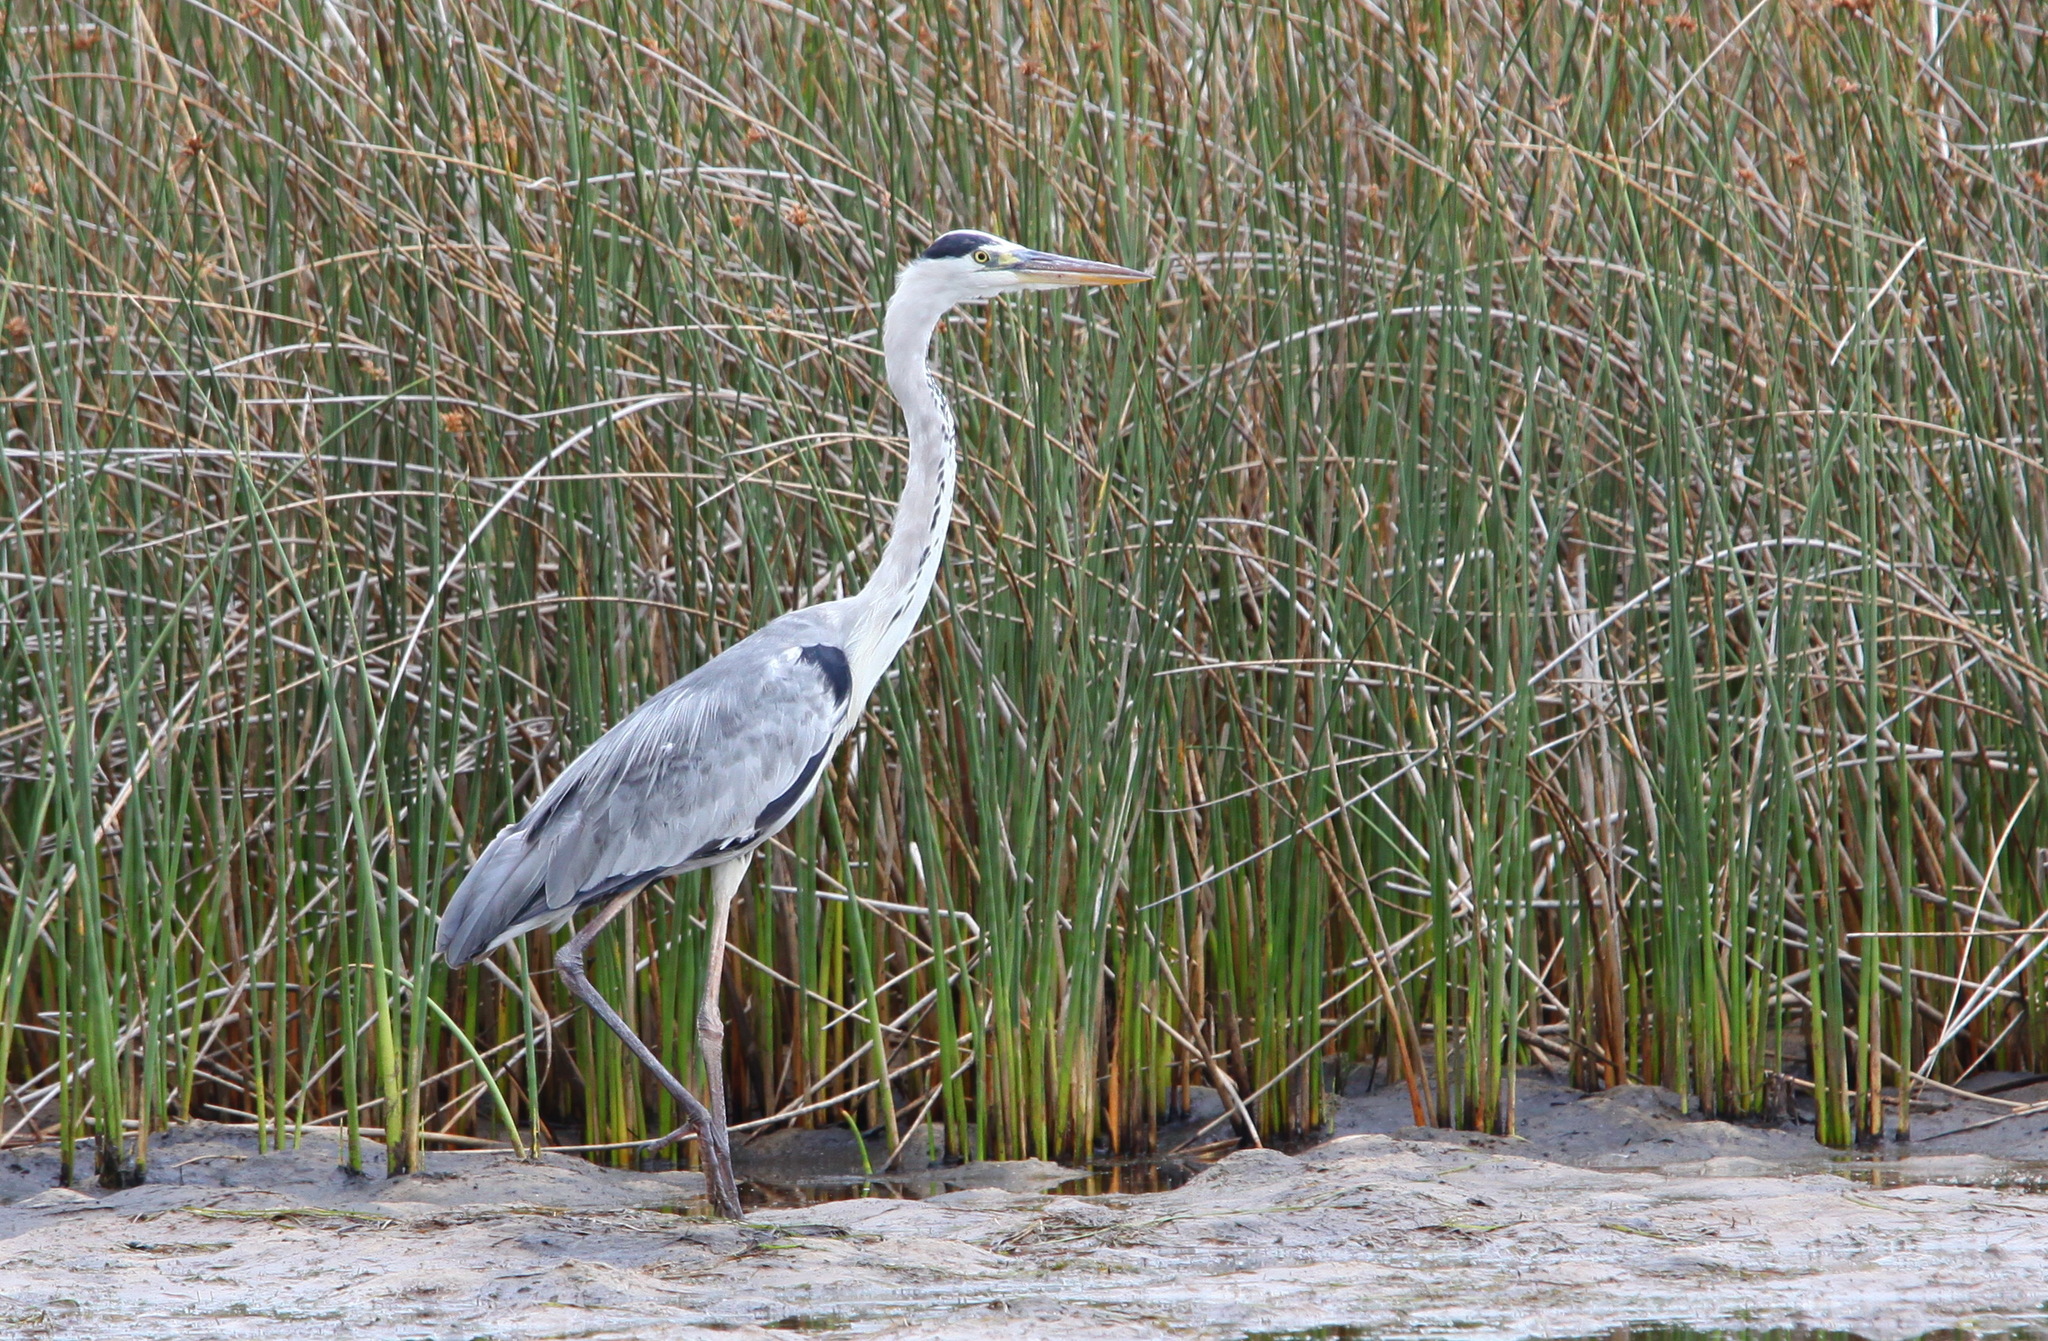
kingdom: Animalia
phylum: Chordata
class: Aves
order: Pelecaniformes
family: Ardeidae
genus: Ardea
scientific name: Ardea cinerea
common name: Grey heron
